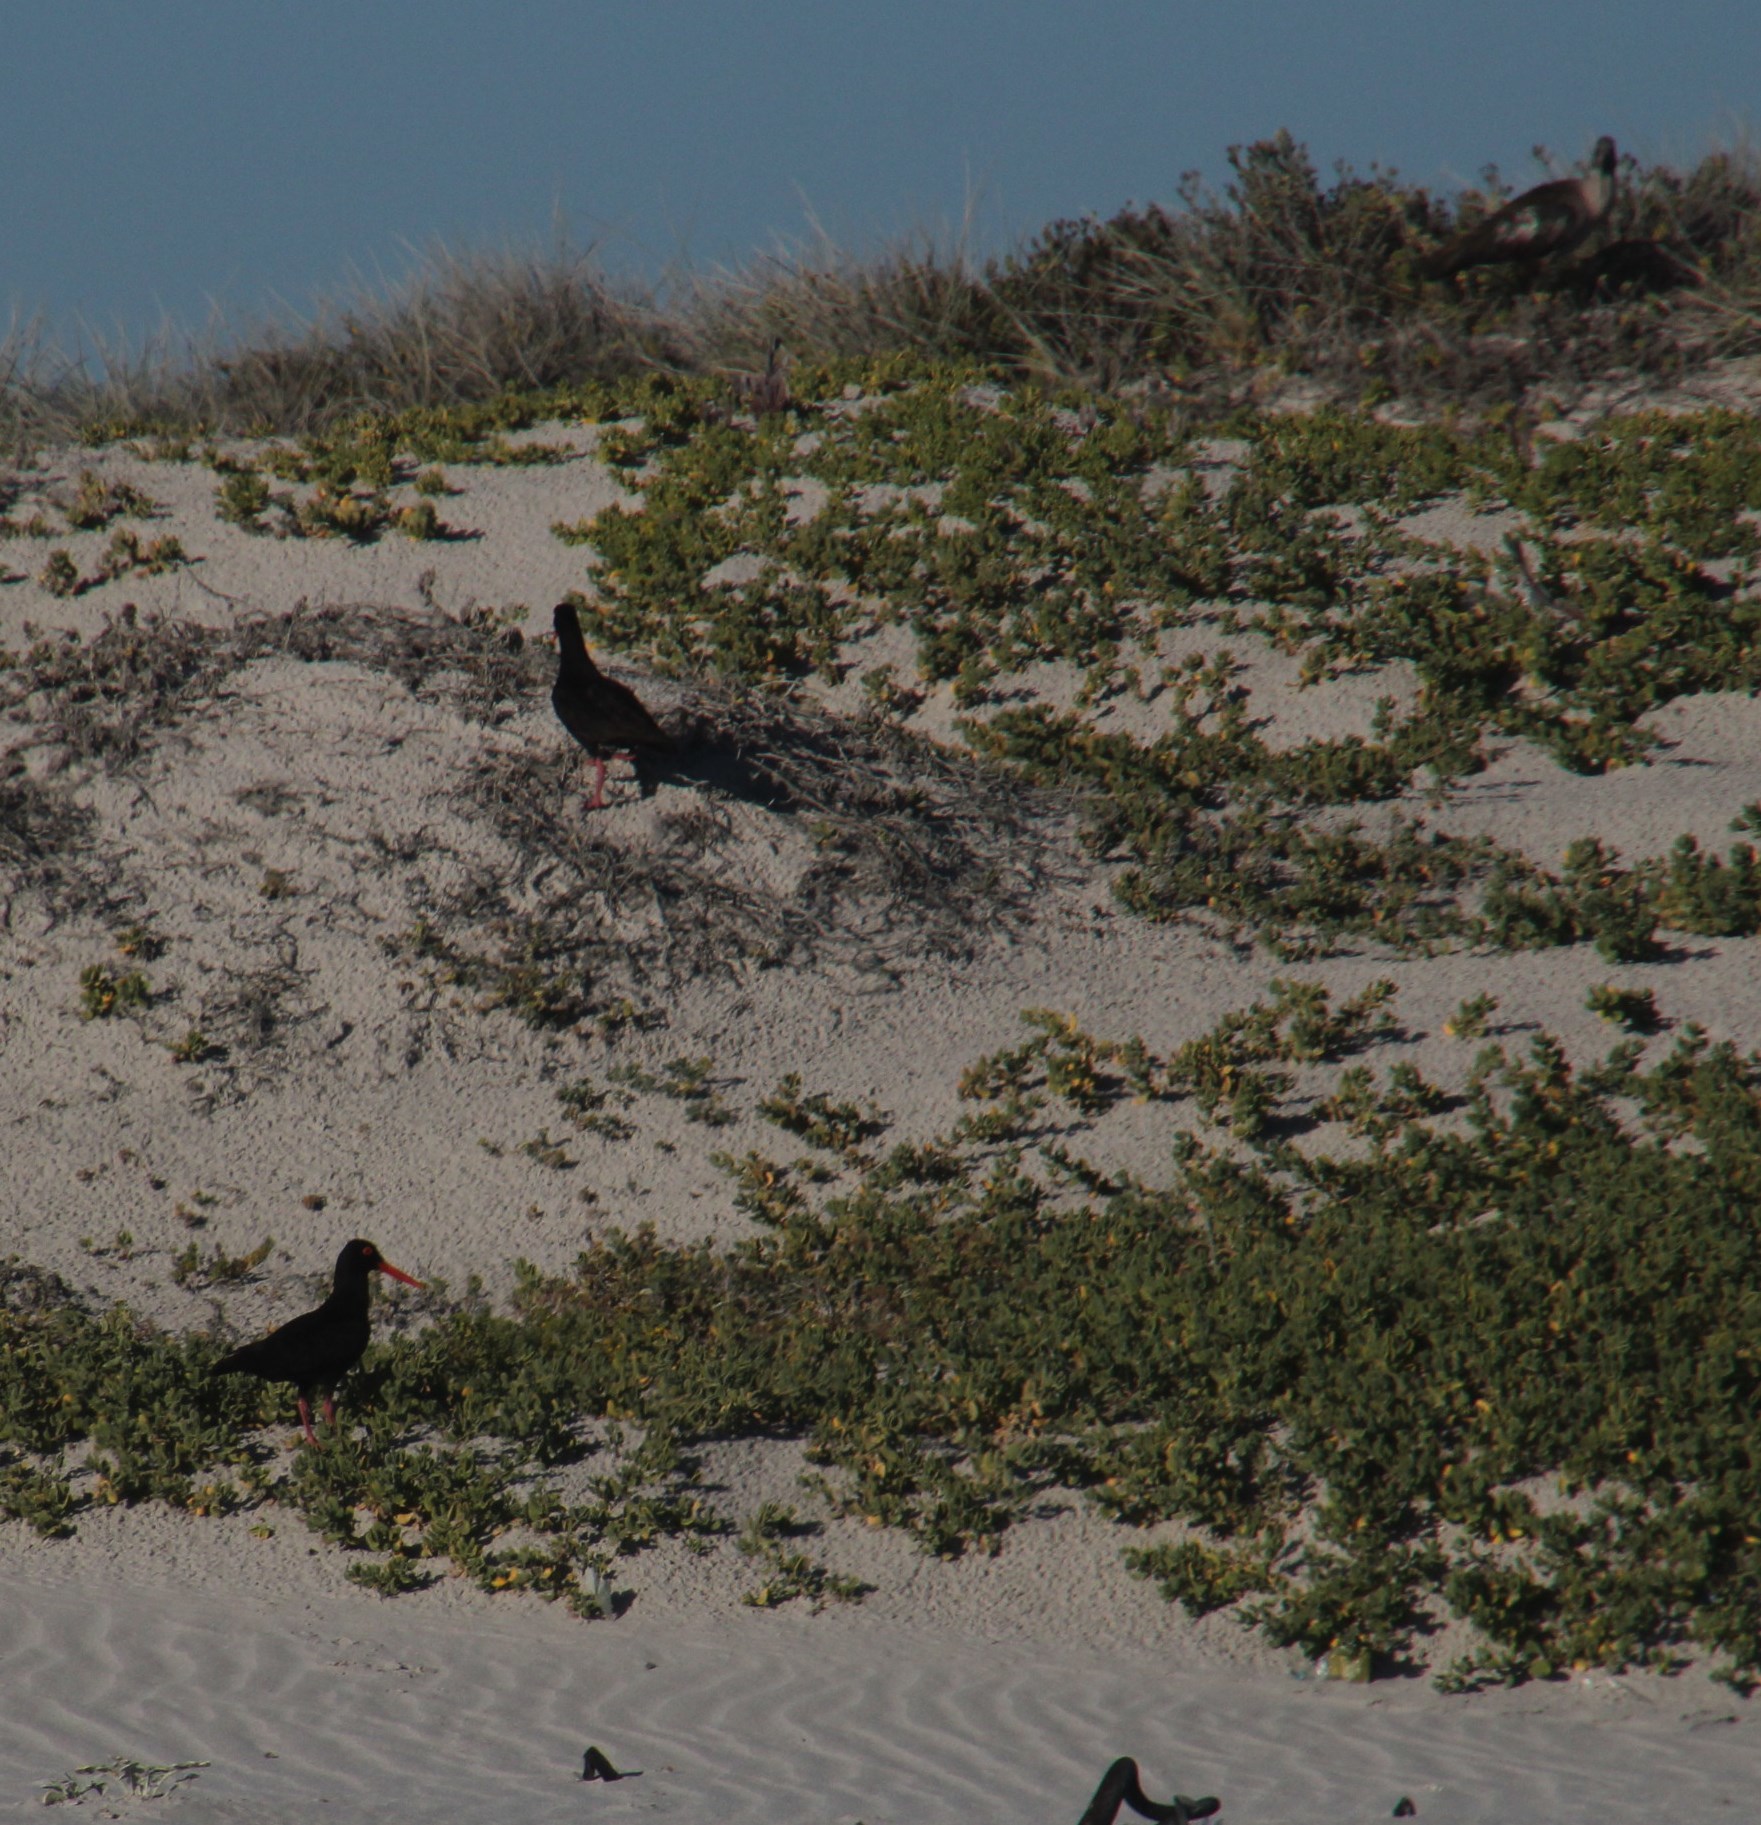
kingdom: Animalia
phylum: Chordata
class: Aves
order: Charadriiformes
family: Haematopodidae
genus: Haematopus
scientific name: Haematopus moquini
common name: African oystercatcher
